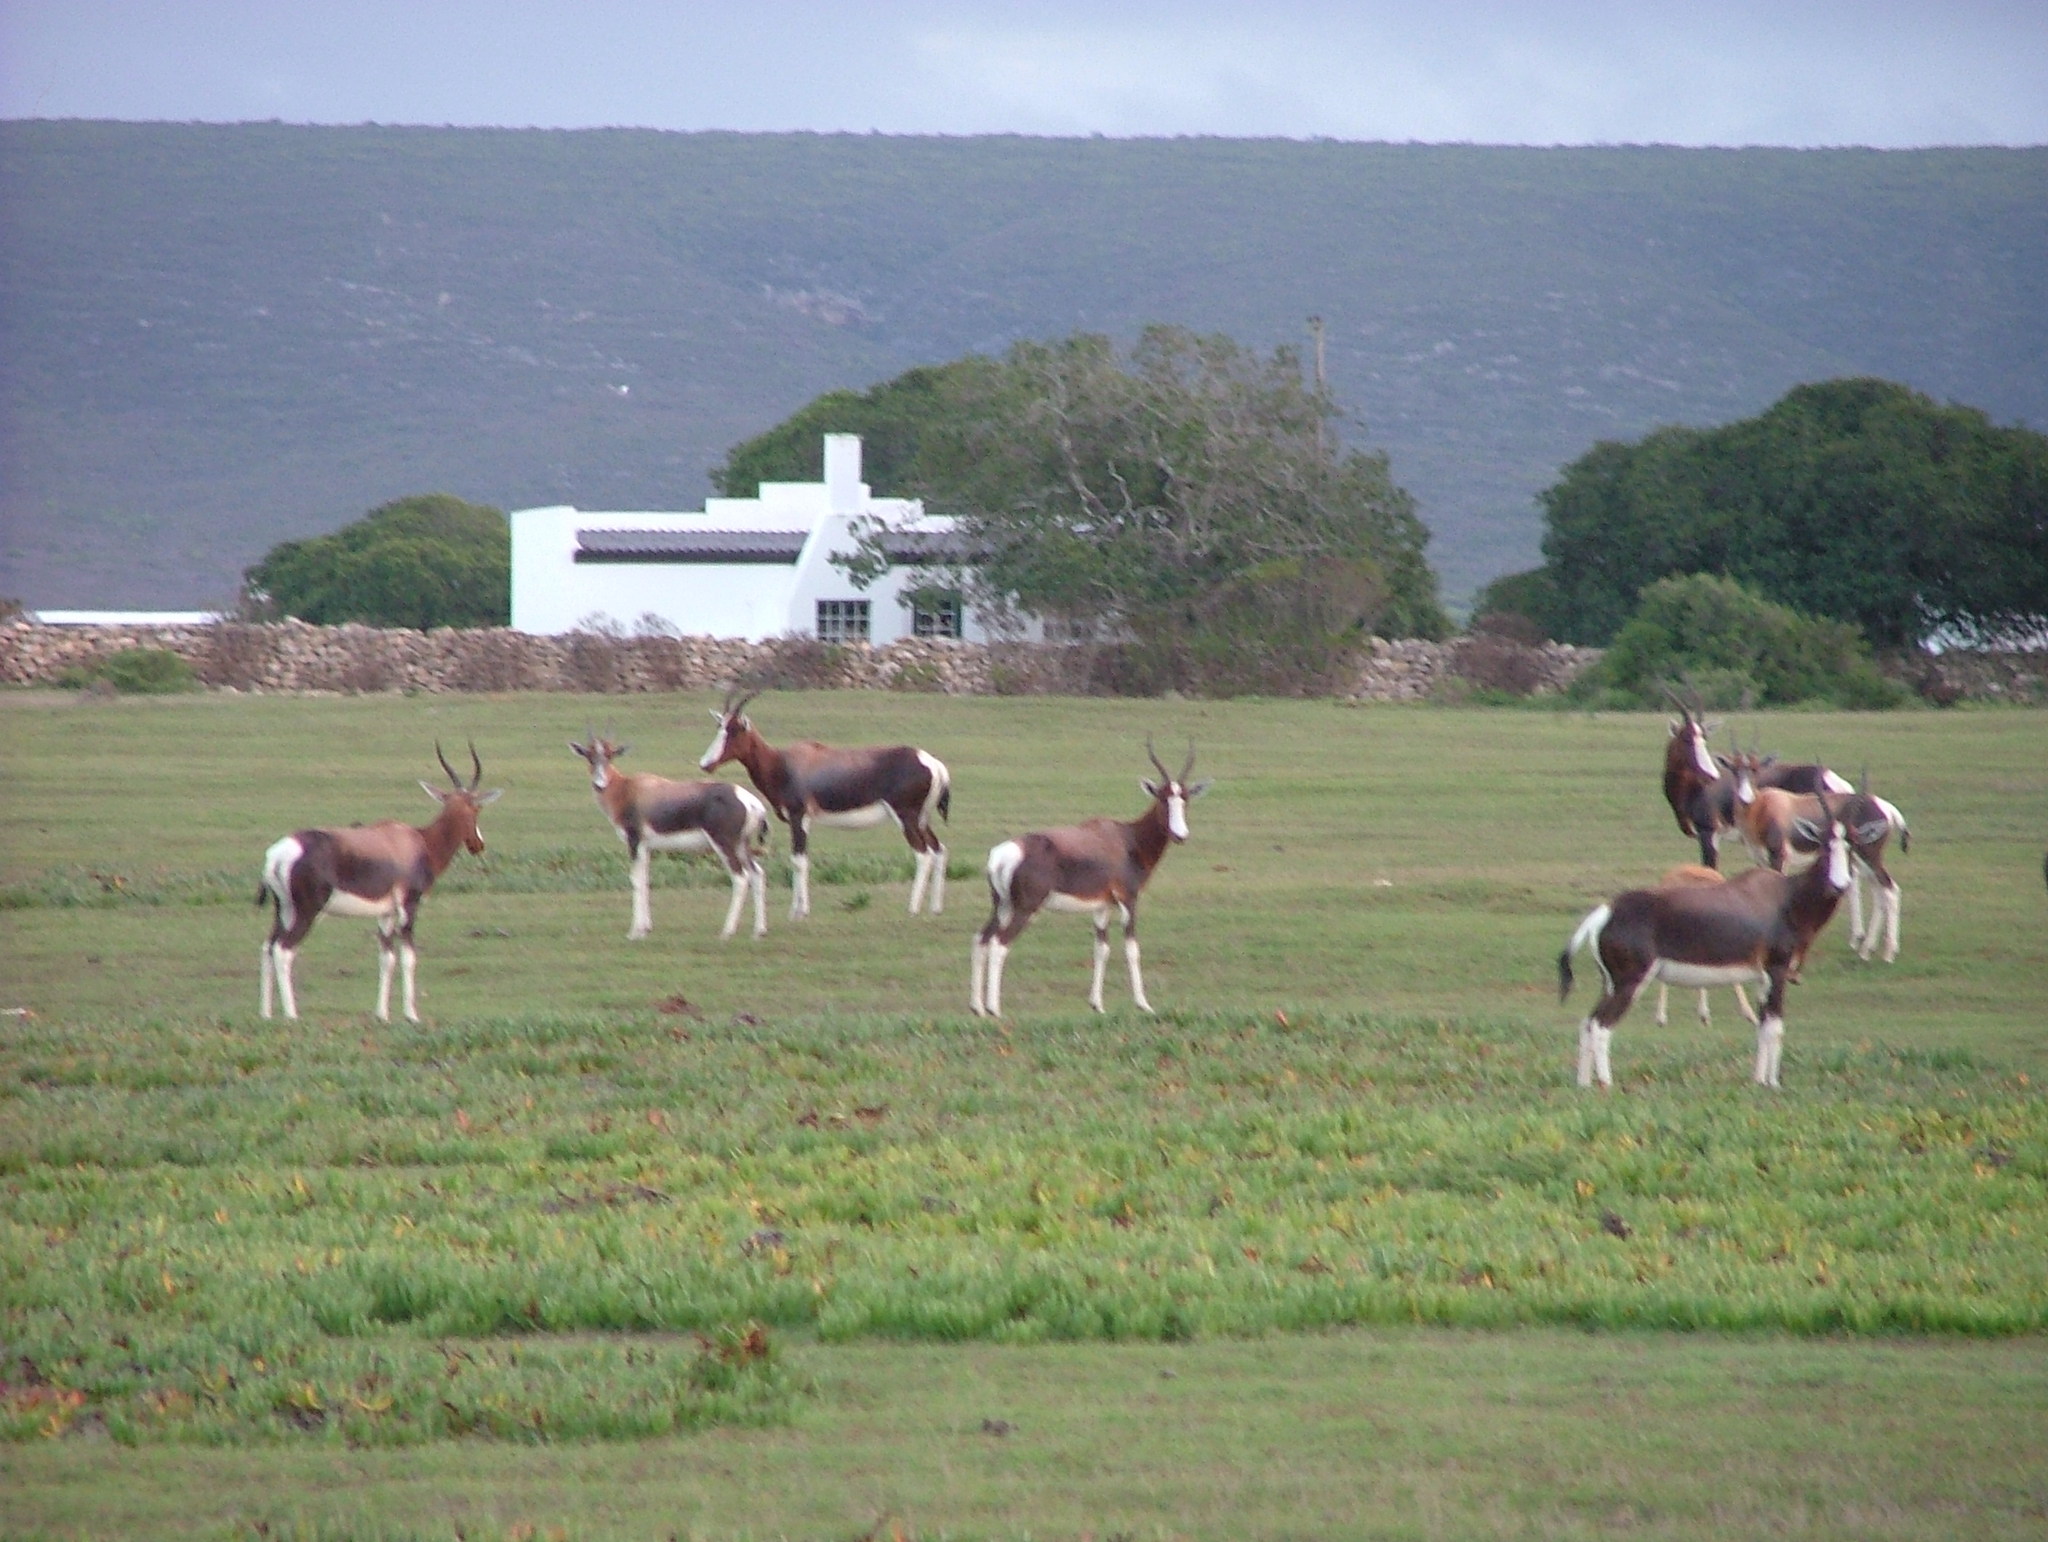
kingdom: Animalia
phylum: Chordata
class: Mammalia
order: Artiodactyla
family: Bovidae
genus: Damaliscus
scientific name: Damaliscus pygargus
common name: Bontebok
